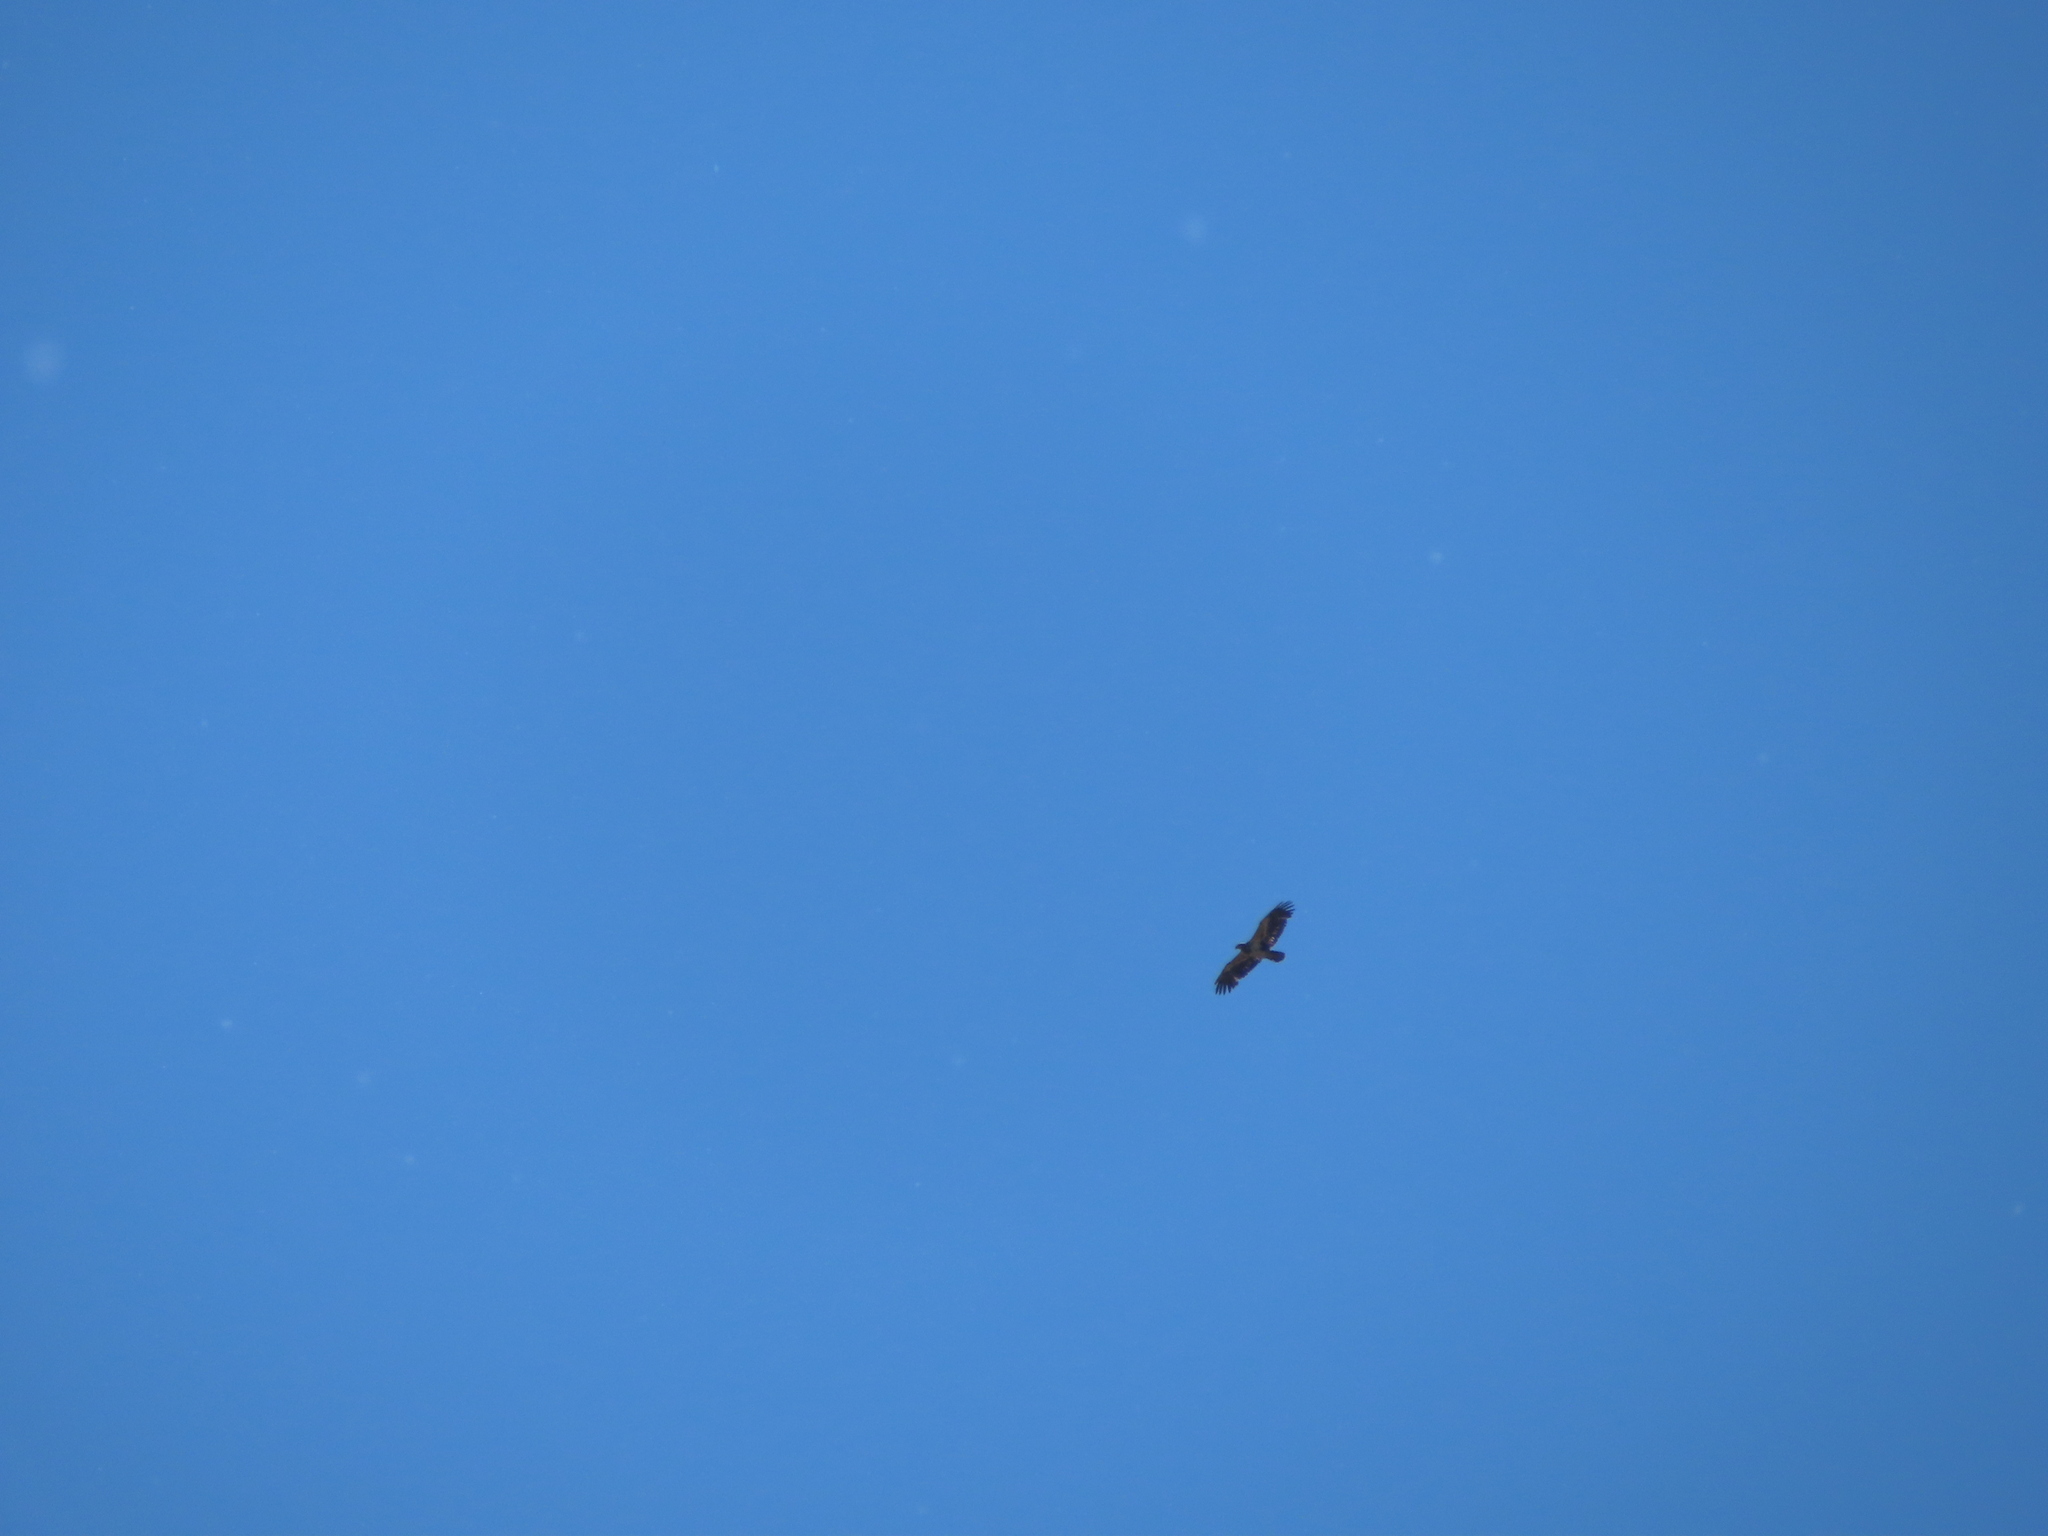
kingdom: Animalia
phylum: Chordata
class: Aves
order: Accipitriformes
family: Accipitridae
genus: Haliaeetus
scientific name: Haliaeetus leucocephalus
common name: Bald eagle
